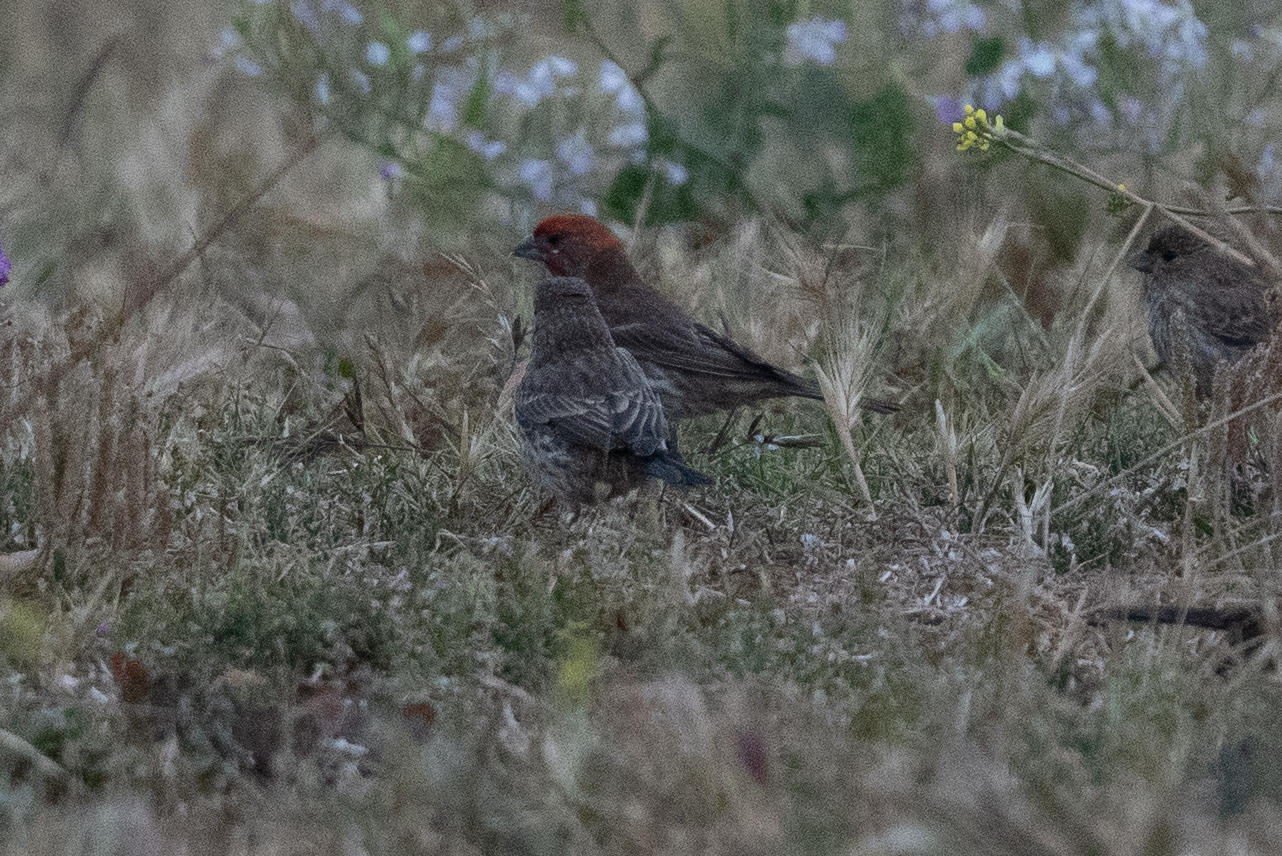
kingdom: Animalia
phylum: Chordata
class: Aves
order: Passeriformes
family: Fringillidae
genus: Haemorhous
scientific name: Haemorhous mexicanus
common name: House finch
